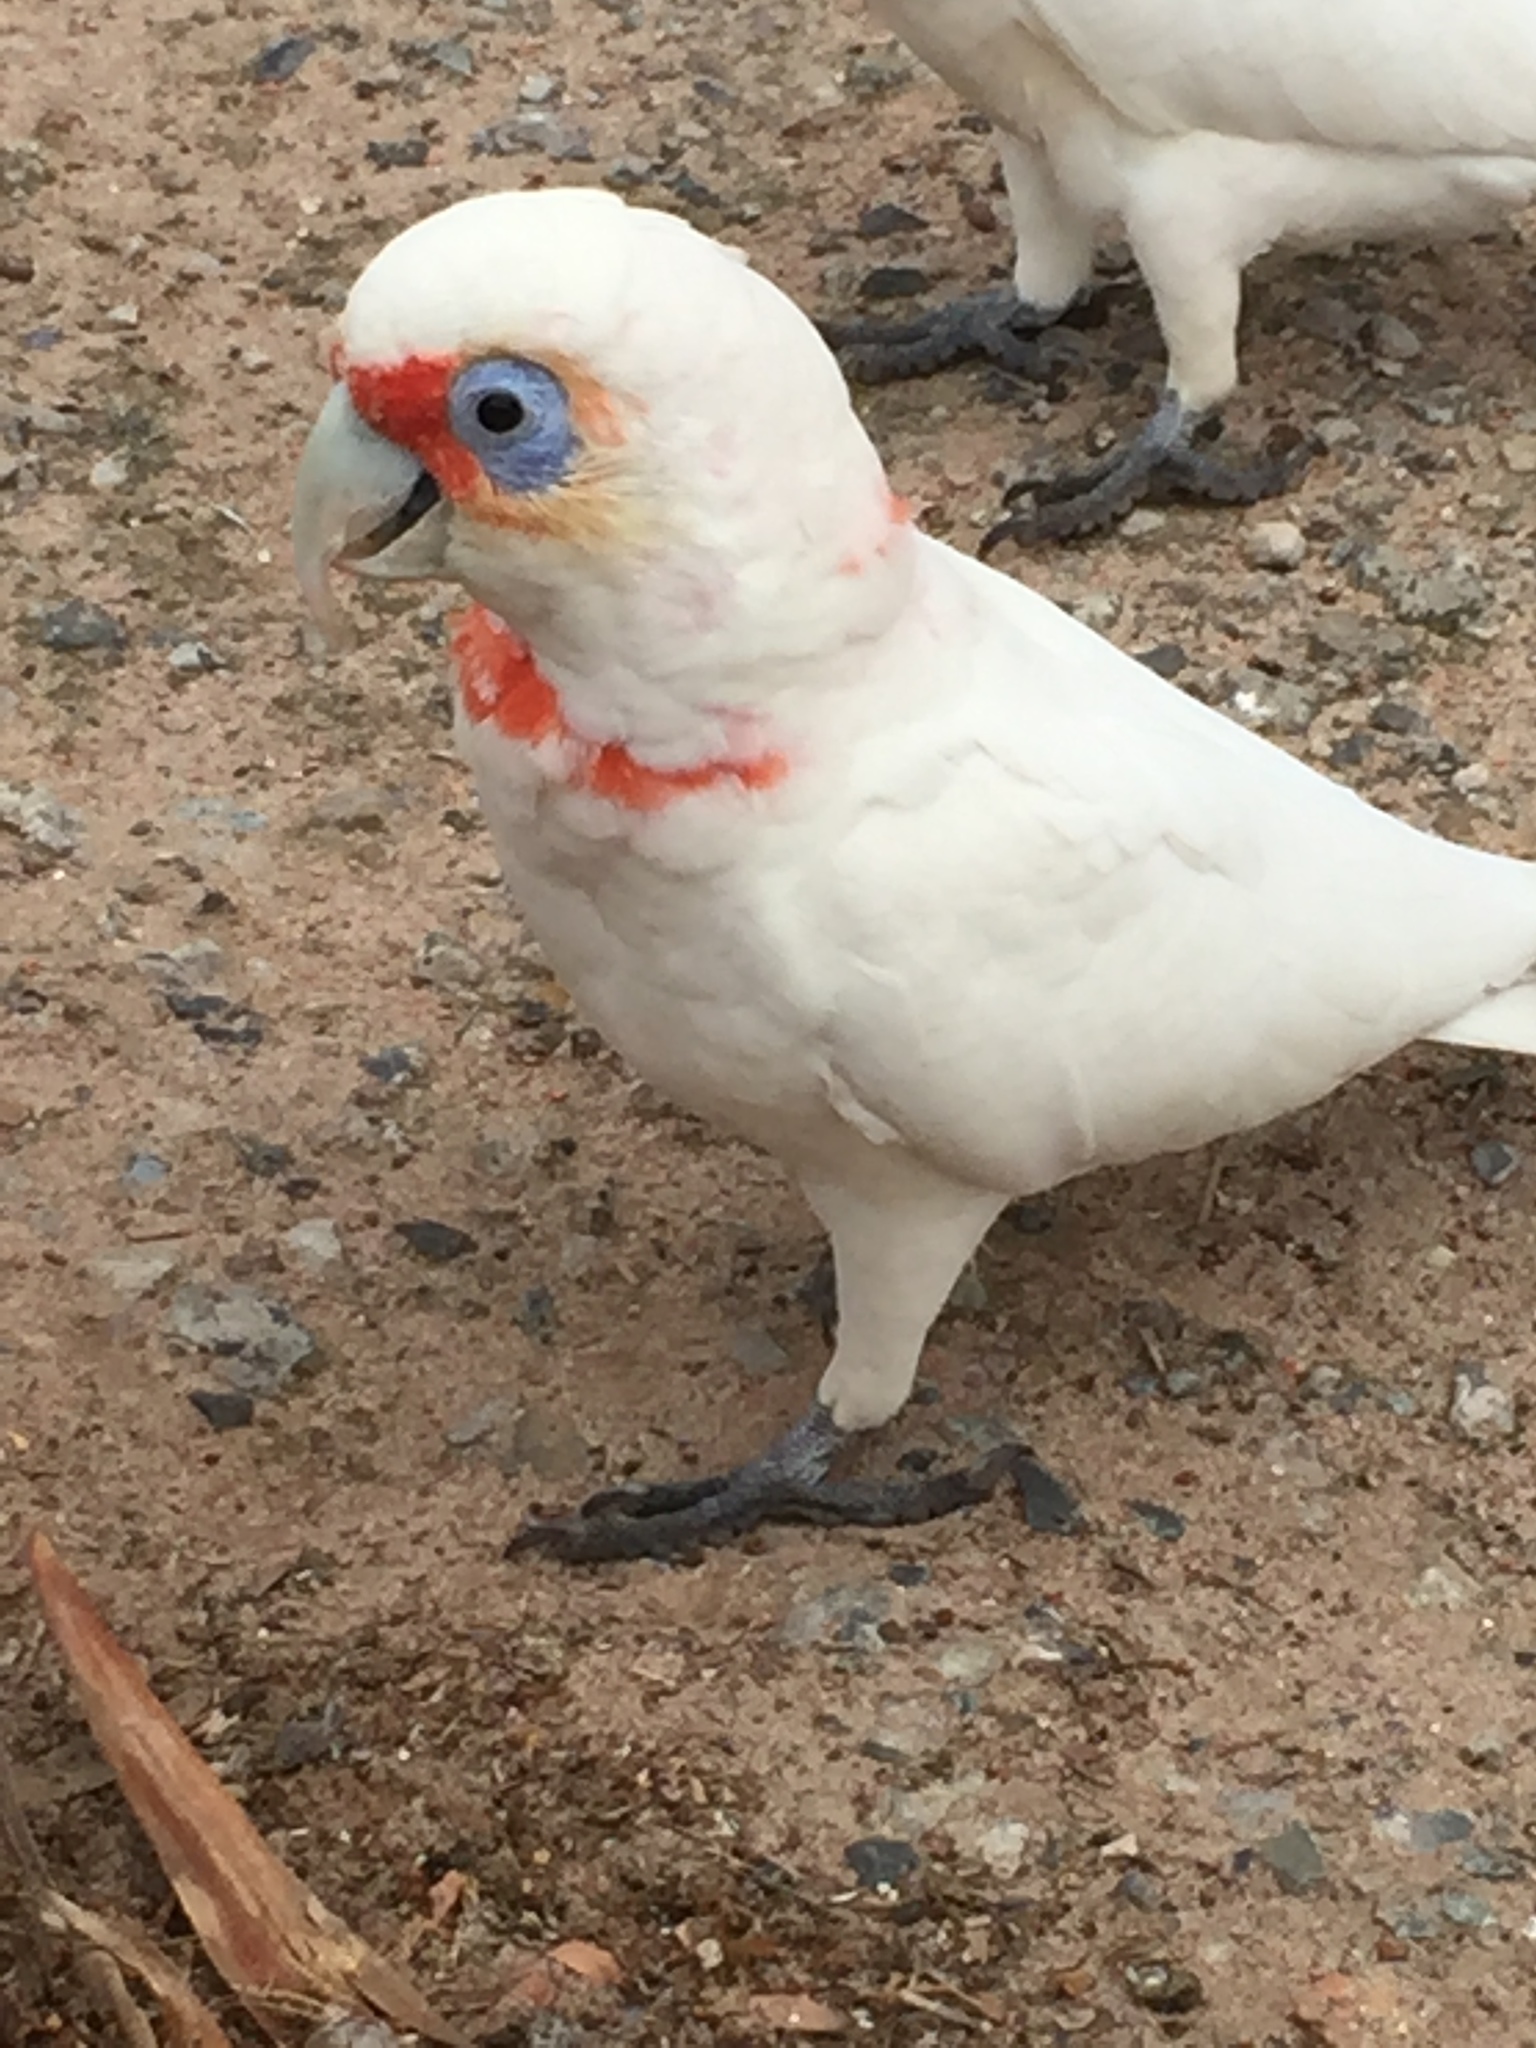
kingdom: Animalia
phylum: Chordata
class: Aves
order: Psittaciformes
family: Psittacidae
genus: Cacatua
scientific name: Cacatua tenuirostris
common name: Long-billed corella
